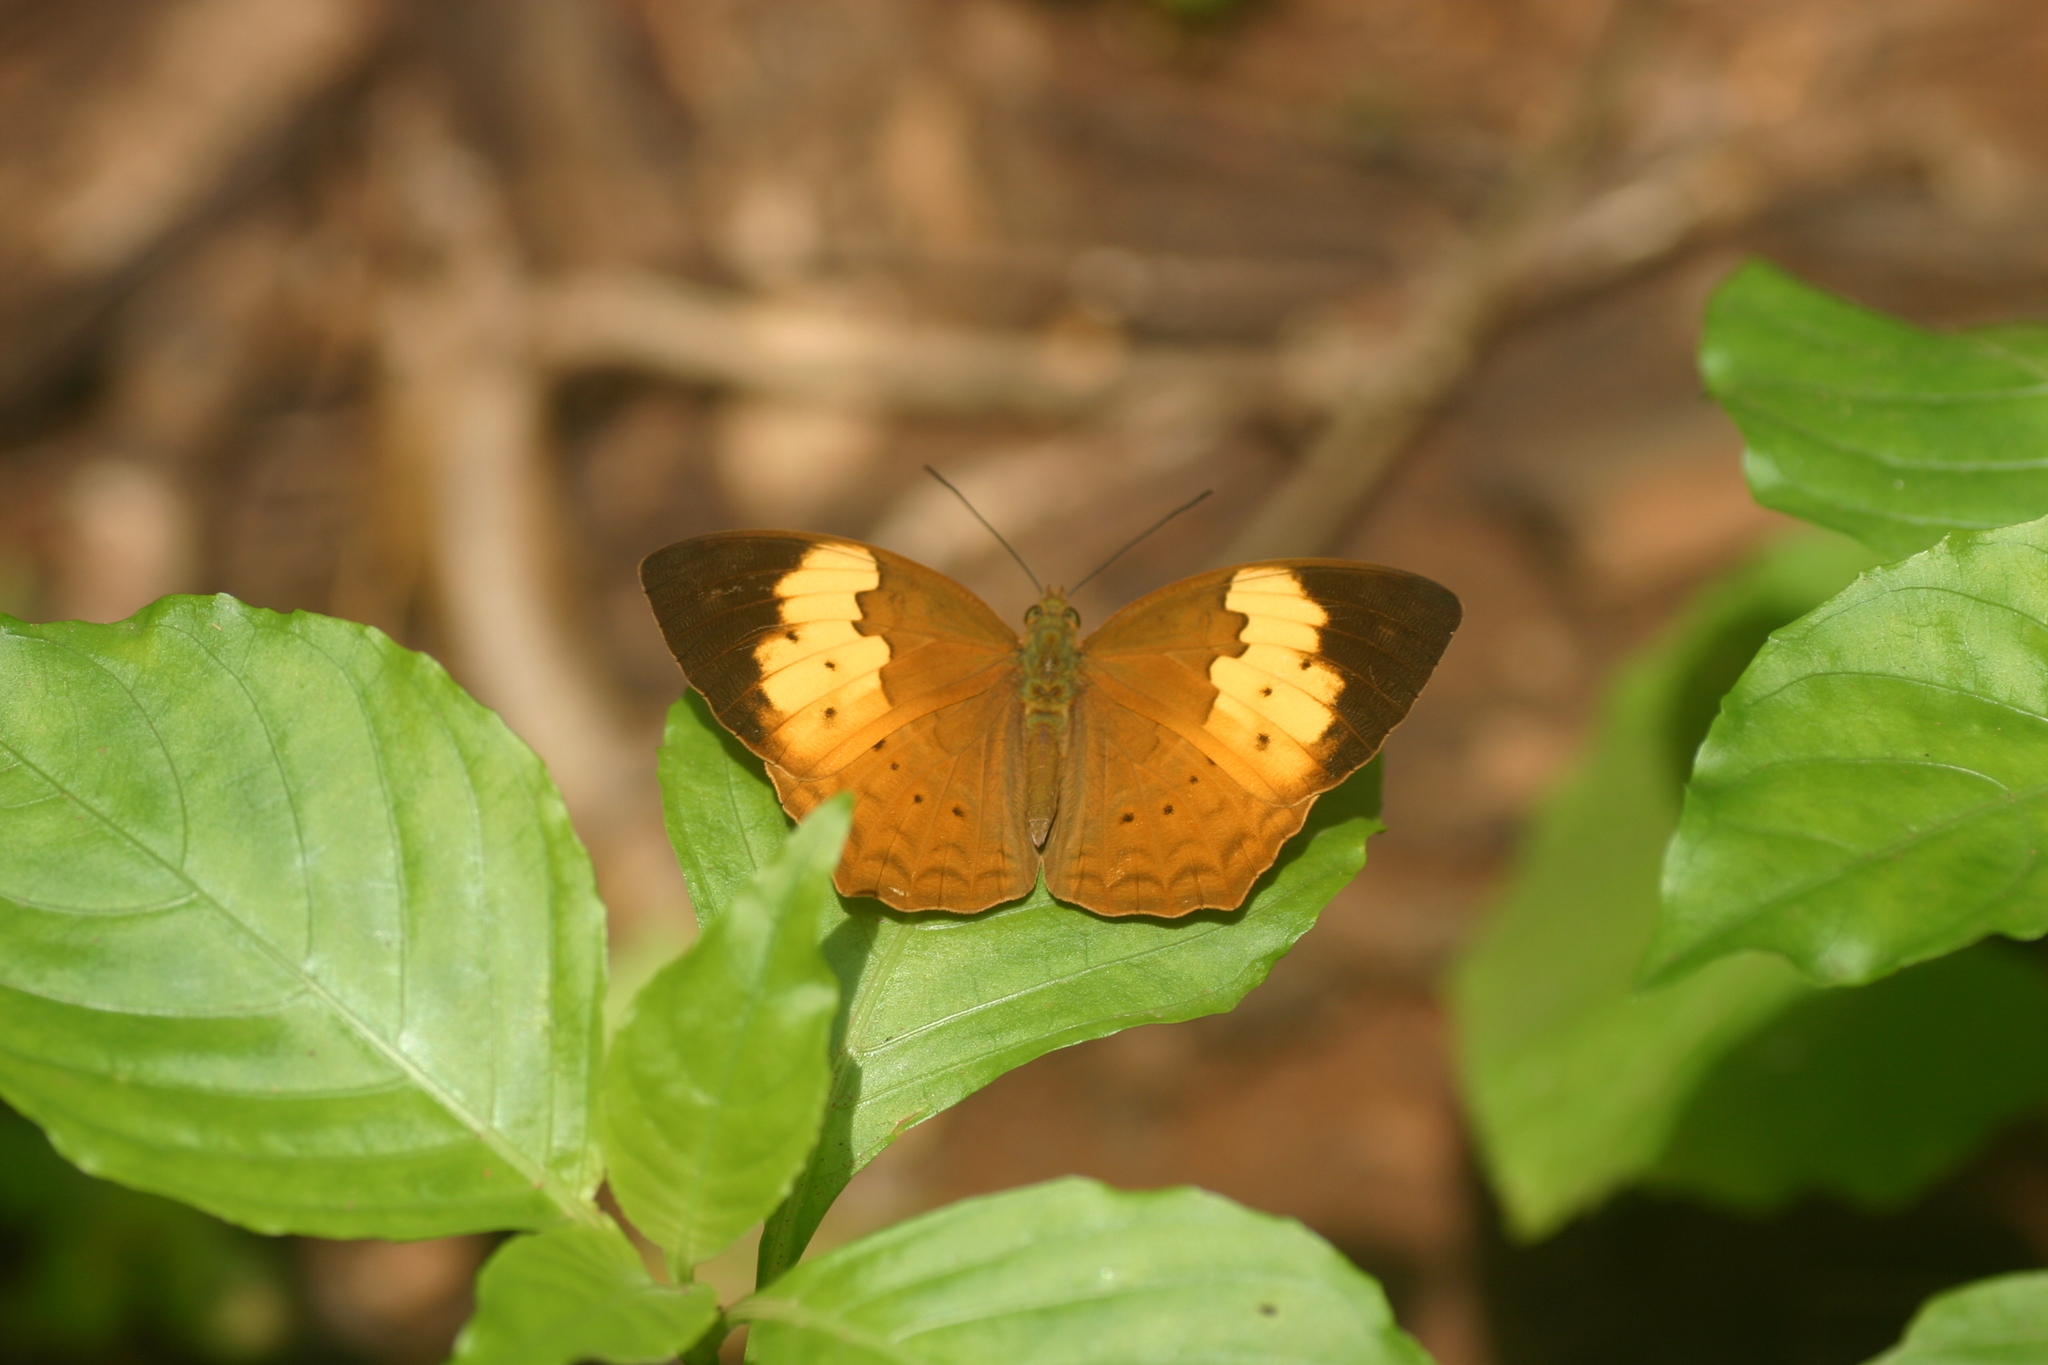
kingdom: Animalia
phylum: Arthropoda
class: Insecta
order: Lepidoptera
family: Nymphalidae
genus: Cupha
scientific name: Cupha erymanthis
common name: Rustic
